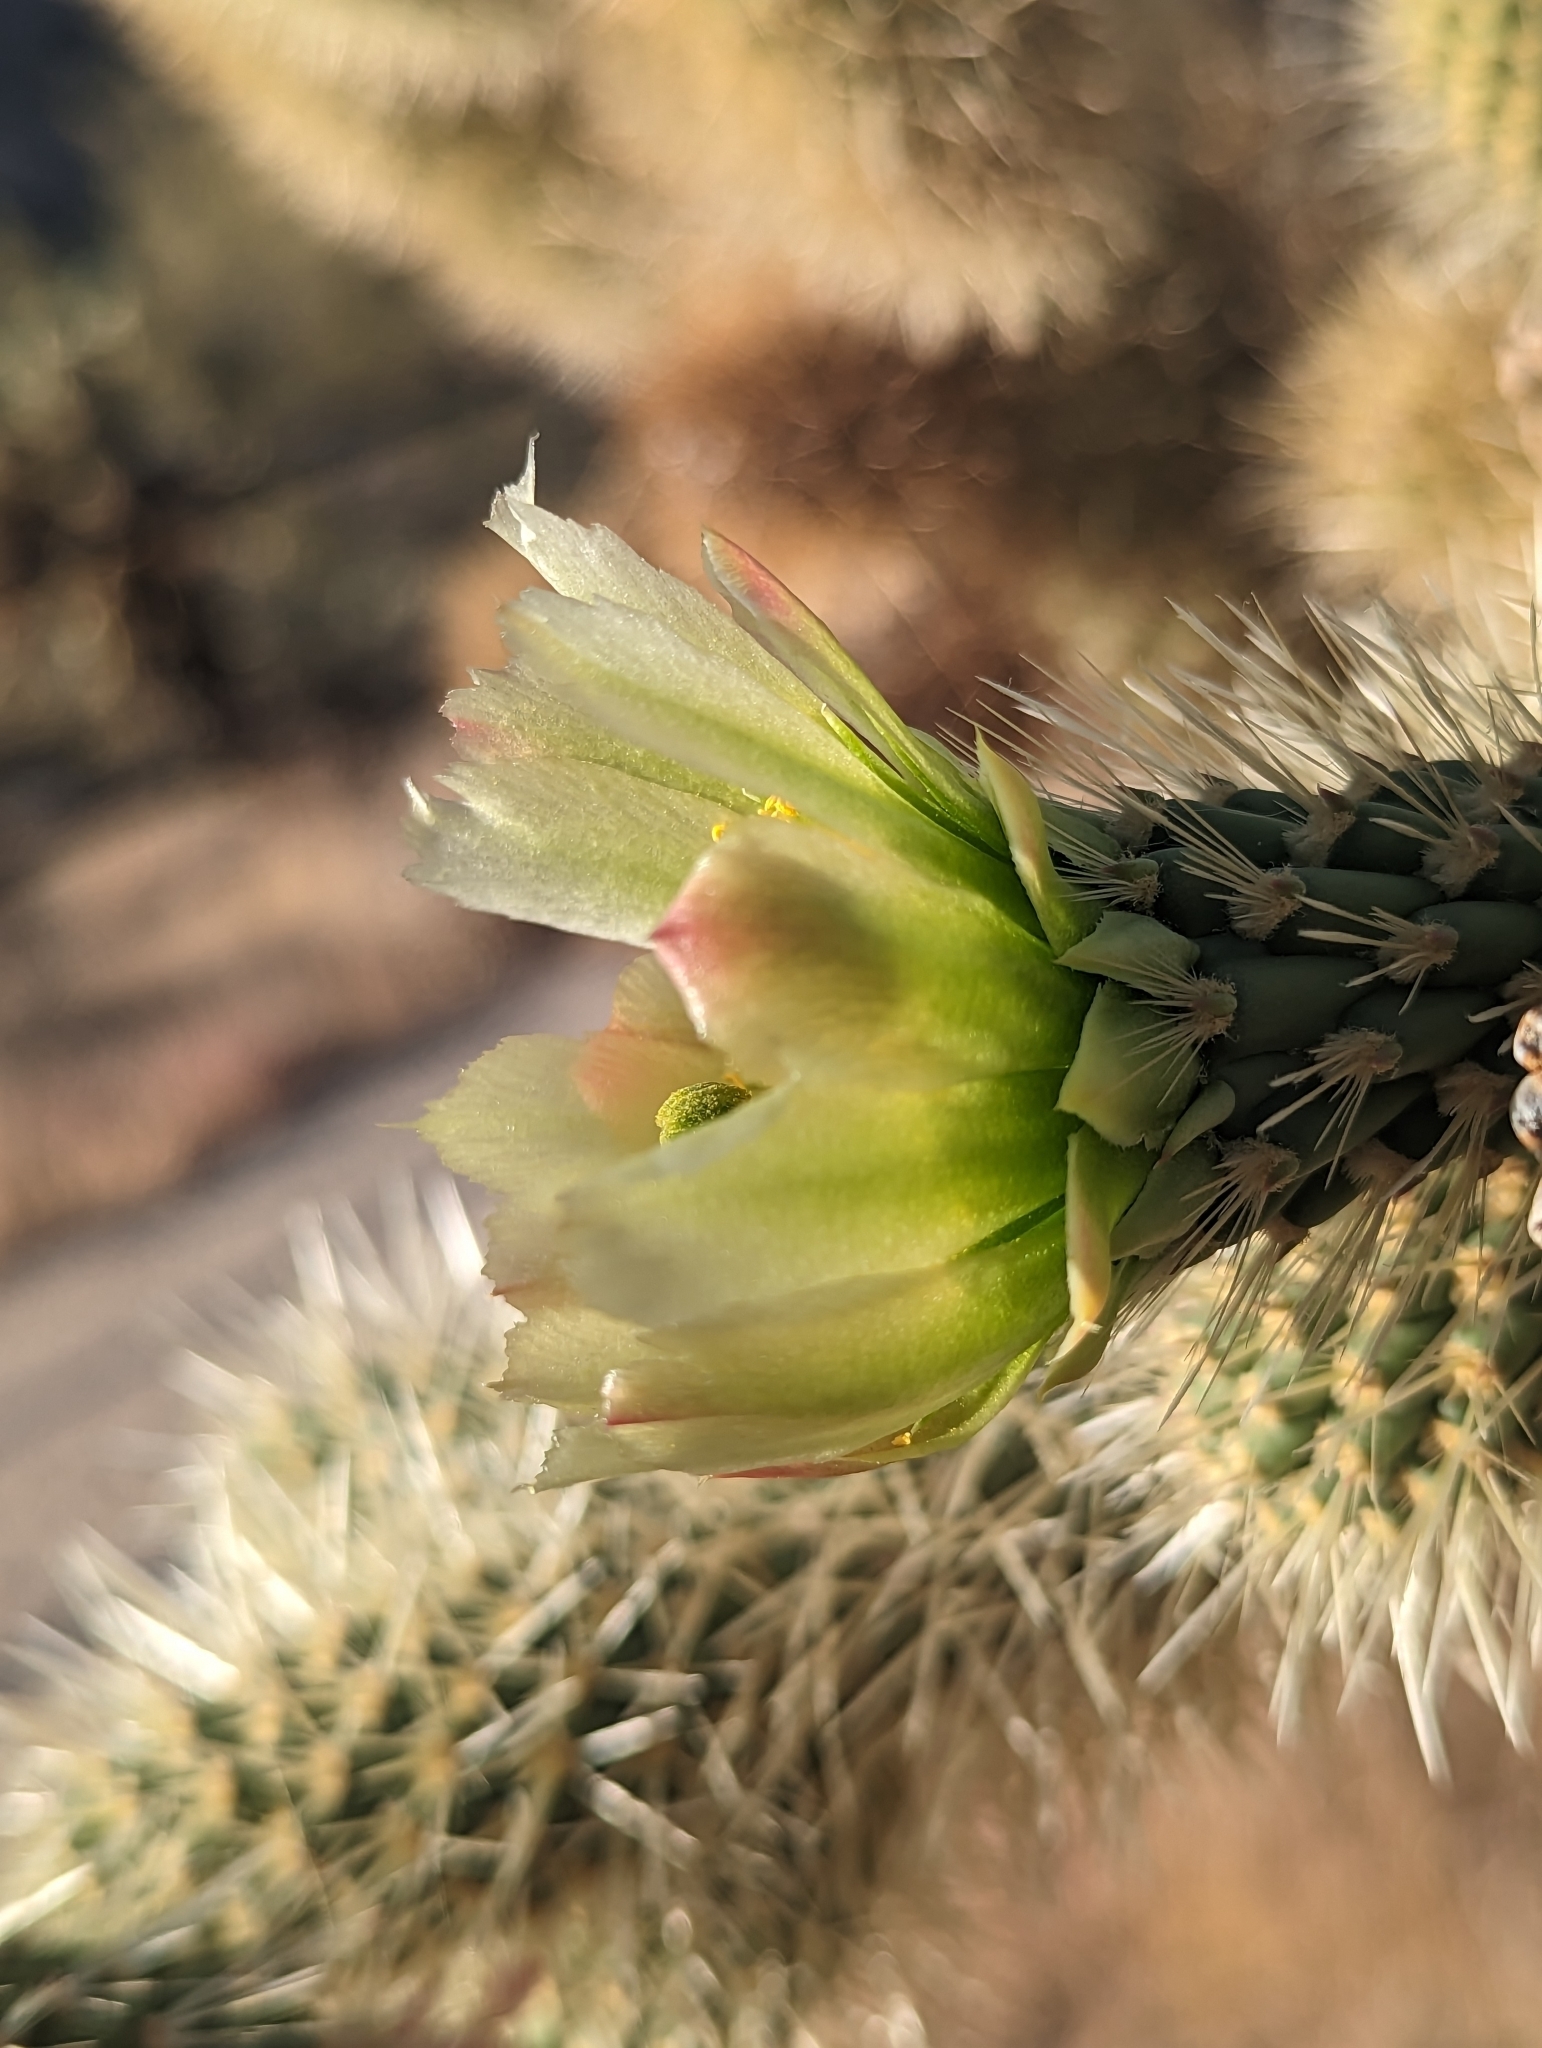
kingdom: Plantae
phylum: Tracheophyta
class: Magnoliopsida
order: Caryophyllales
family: Cactaceae
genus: Cylindropuntia
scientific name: Cylindropuntia fosbergii
